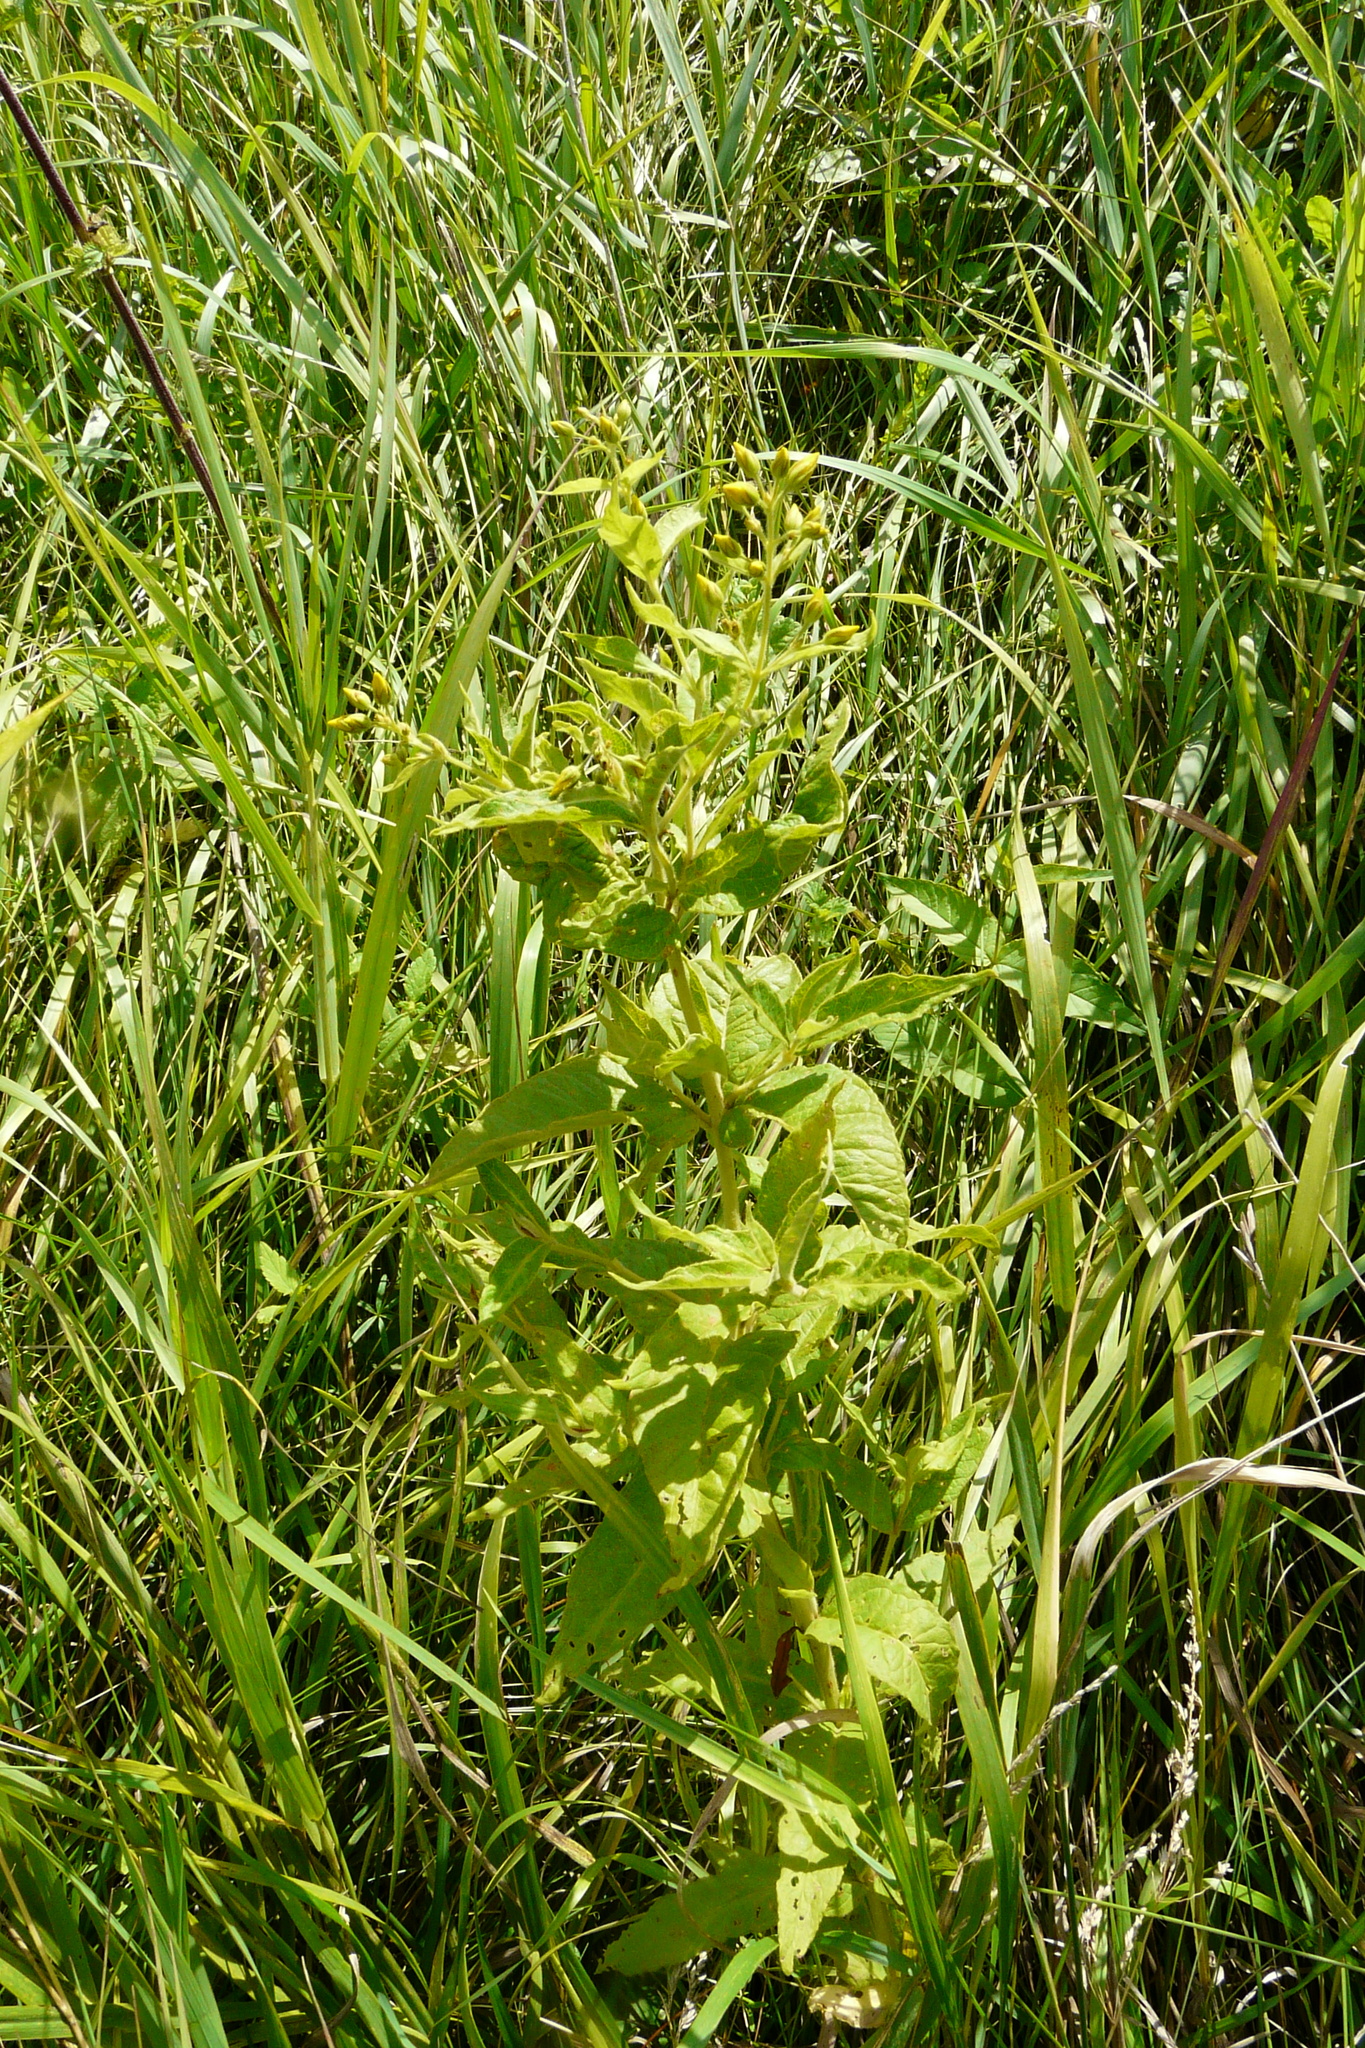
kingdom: Plantae
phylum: Tracheophyta
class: Magnoliopsida
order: Ericales
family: Primulaceae
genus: Lysimachia
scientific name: Lysimachia vulgaris
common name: Yellow loosestrife
